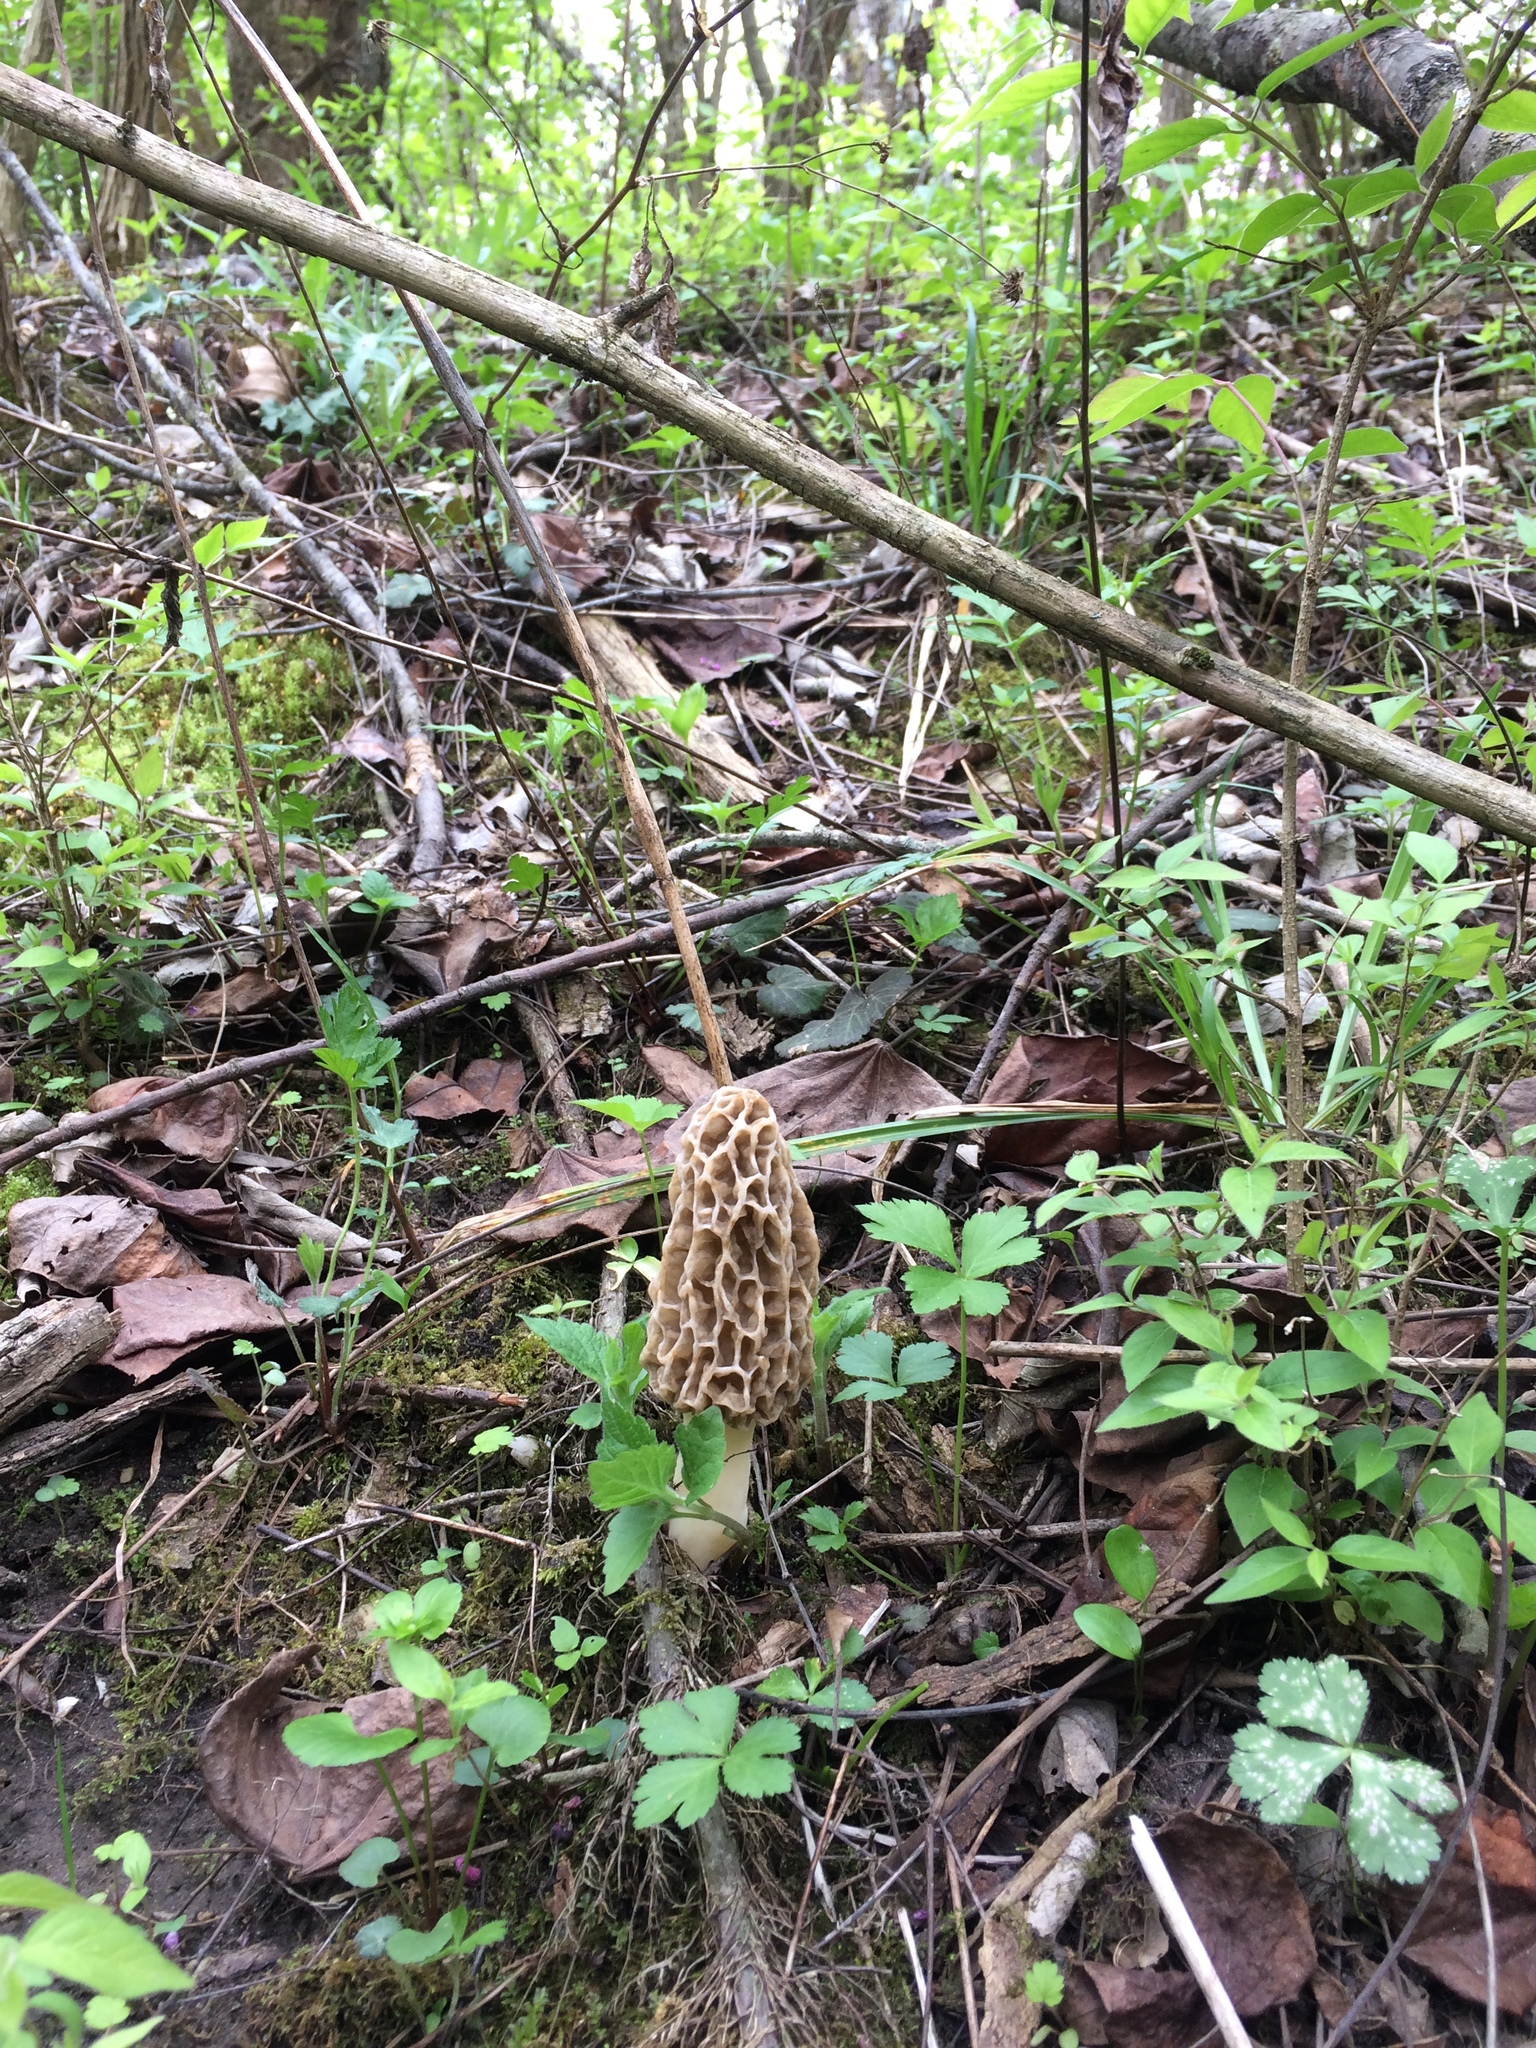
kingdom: Fungi
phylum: Ascomycota
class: Pezizomycetes
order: Pezizales
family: Morchellaceae
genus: Morchella
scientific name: Morchella americana
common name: White morel
